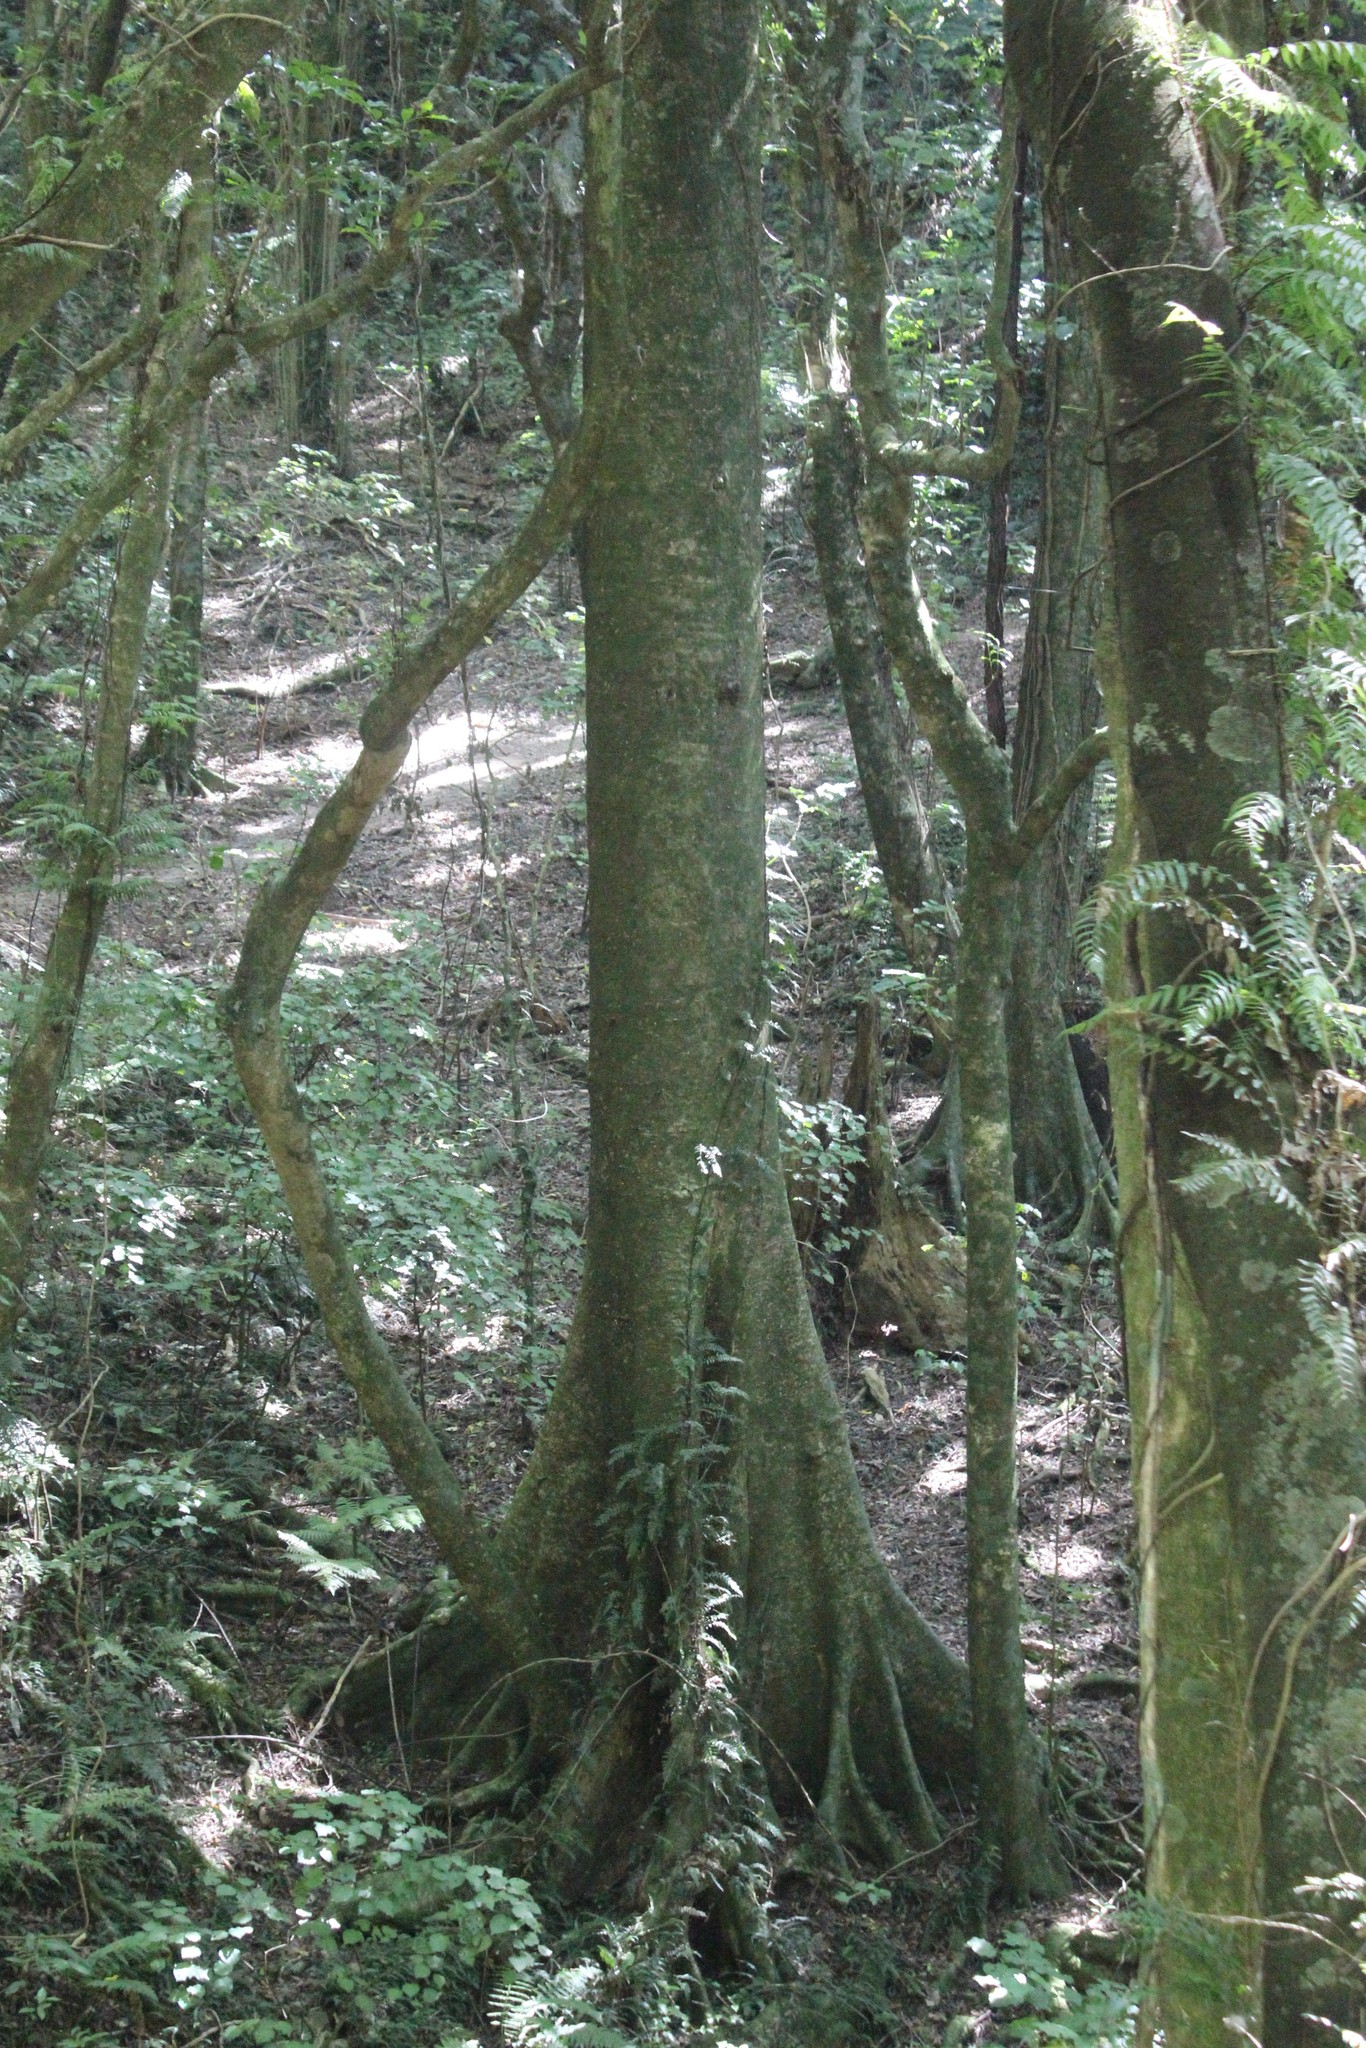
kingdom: Plantae
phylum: Tracheophyta
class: Magnoliopsida
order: Laurales
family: Atherospermataceae
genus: Laurelia
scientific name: Laurelia novae-zelandiae
